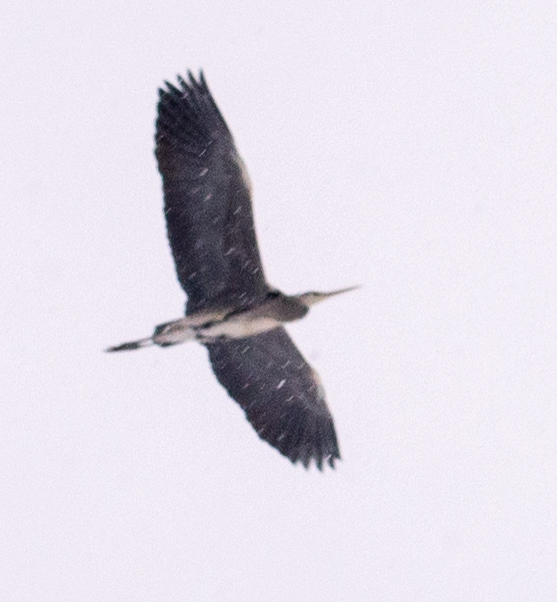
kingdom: Animalia
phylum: Chordata
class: Aves
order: Pelecaniformes
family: Ardeidae
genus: Ardea
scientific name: Ardea cinerea
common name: Grey heron
